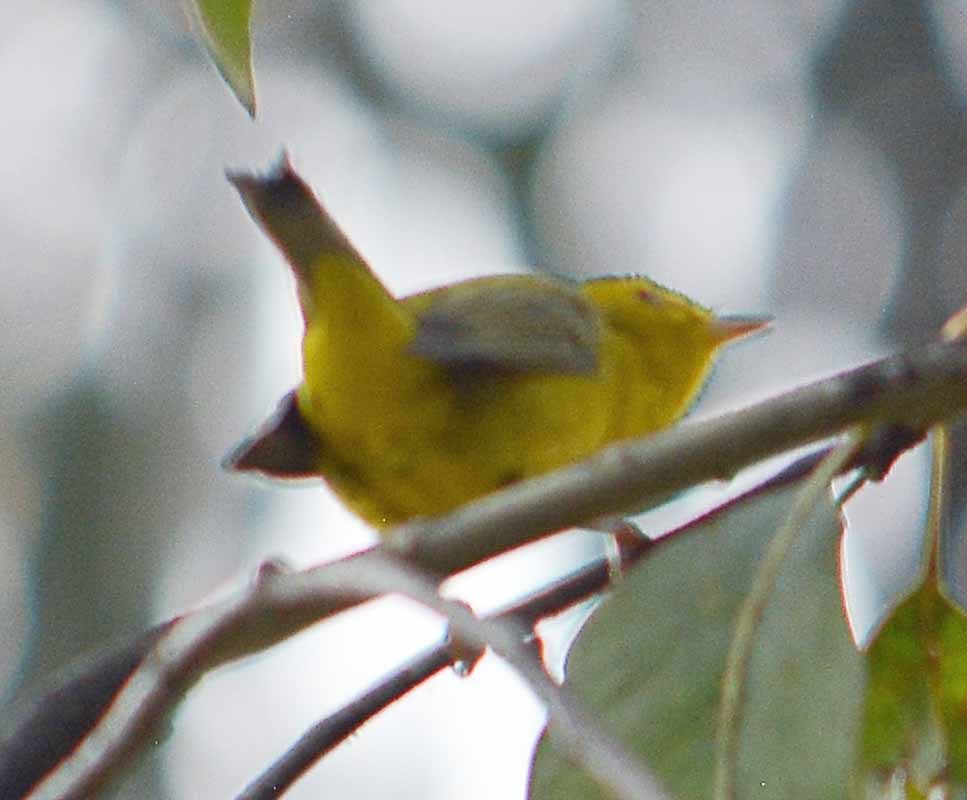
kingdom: Animalia
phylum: Chordata
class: Aves
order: Passeriformes
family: Parulidae
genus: Cardellina
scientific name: Cardellina pusilla
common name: Wilson's warbler
